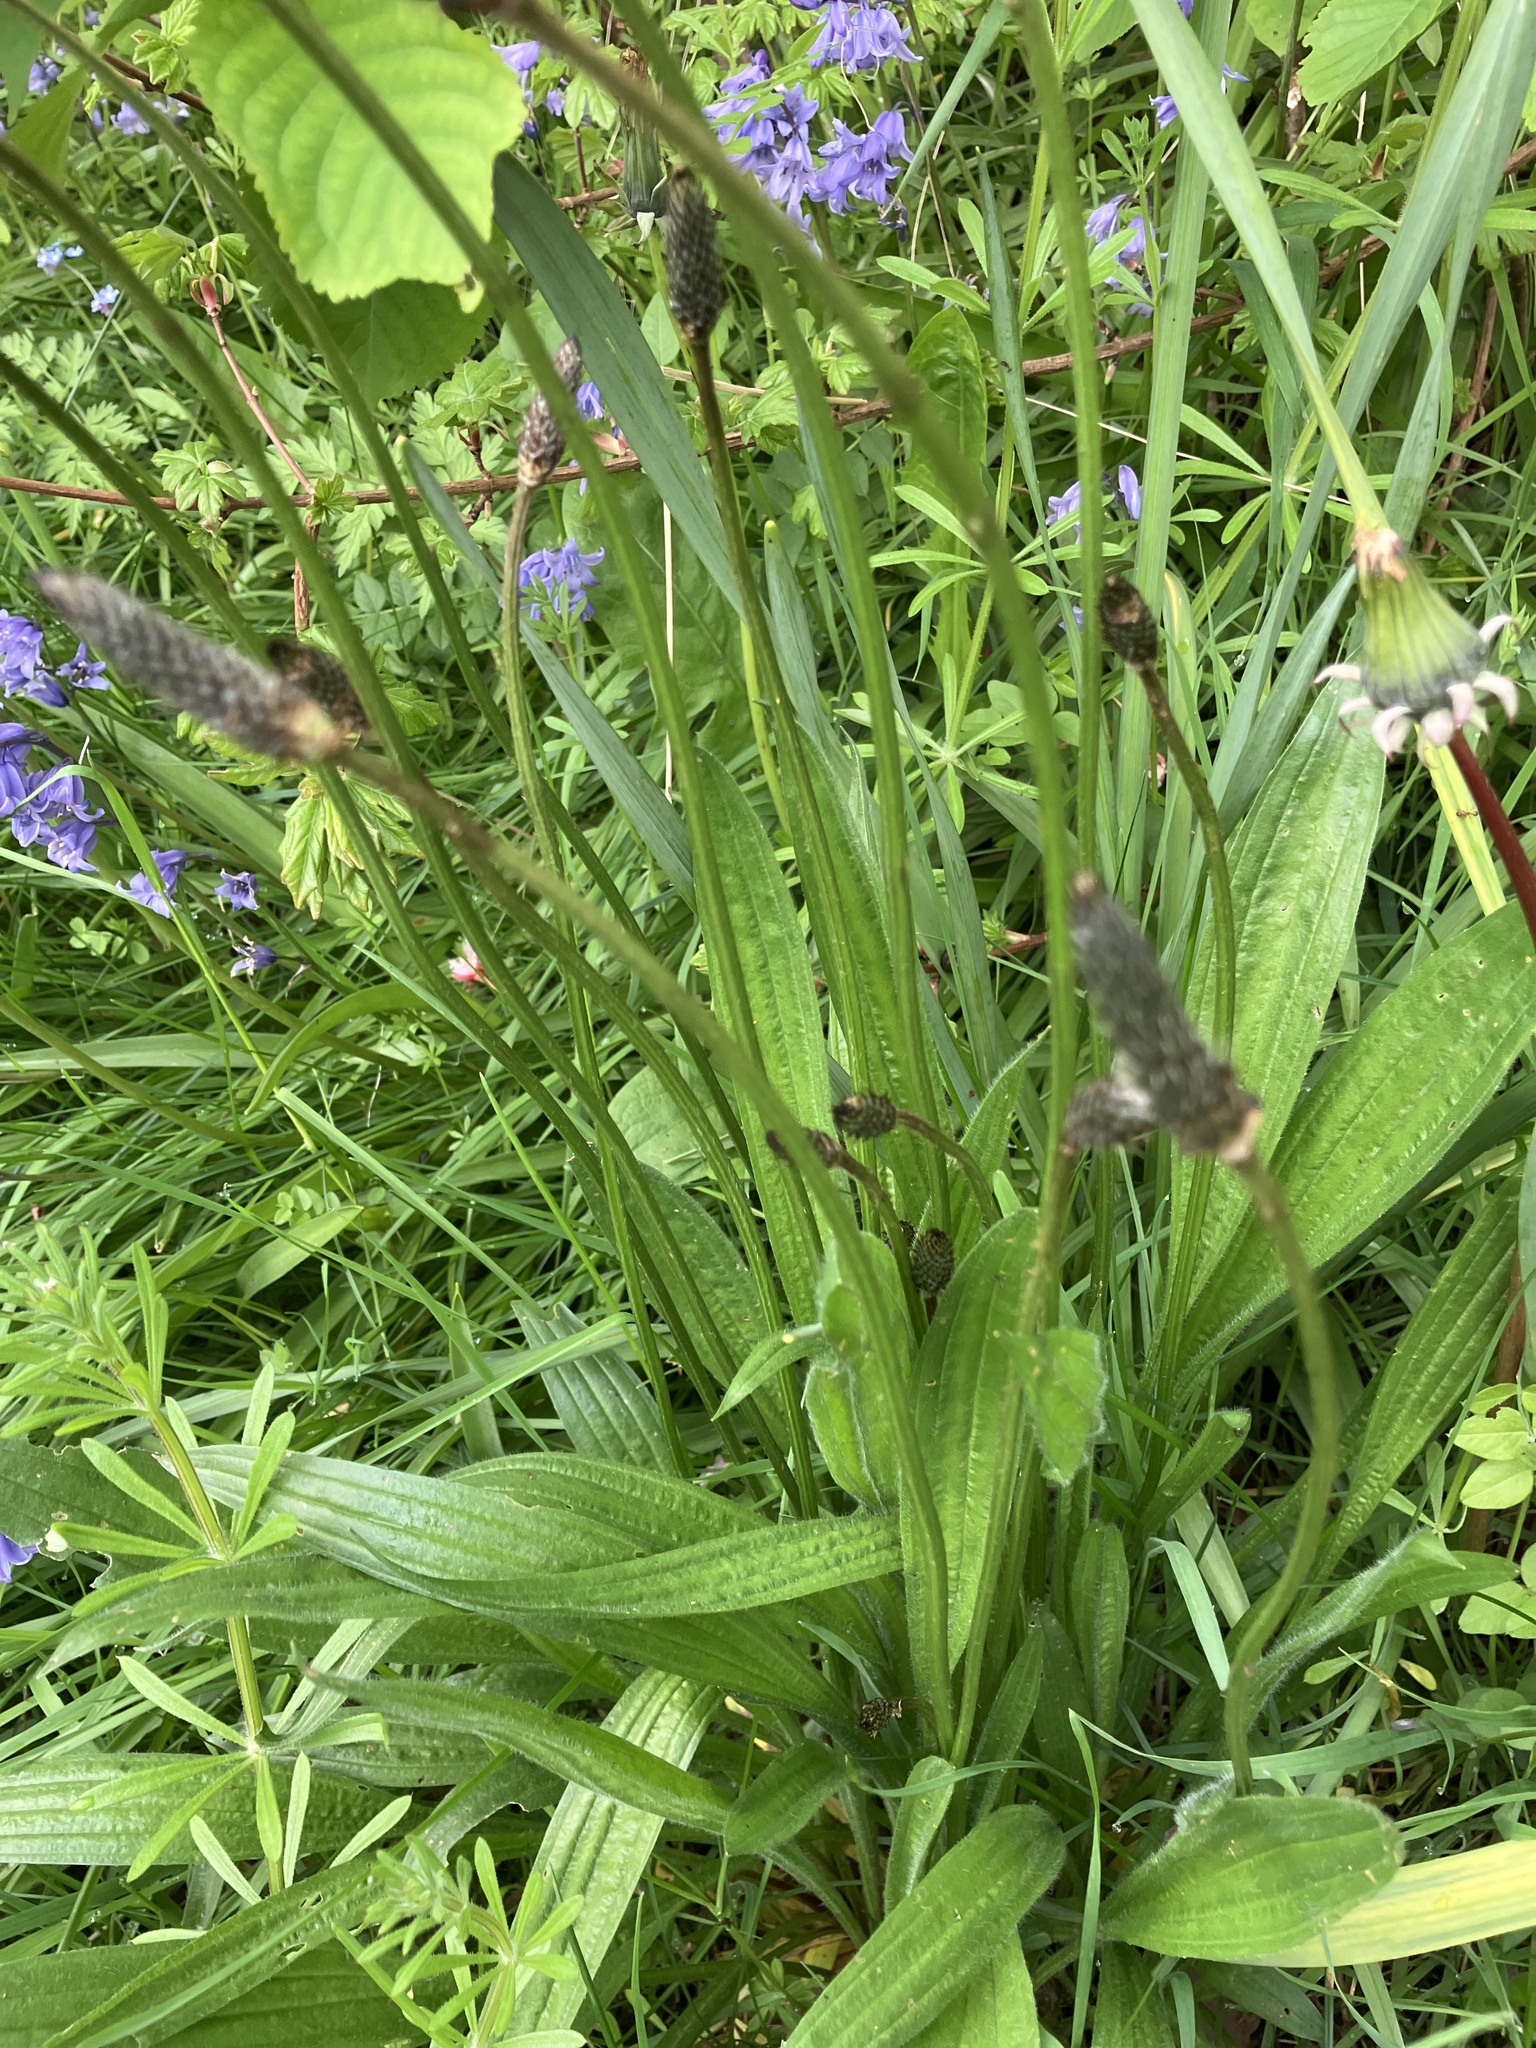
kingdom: Plantae
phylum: Tracheophyta
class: Magnoliopsida
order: Lamiales
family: Plantaginaceae
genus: Plantago
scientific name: Plantago lanceolata
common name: Ribwort plantain
